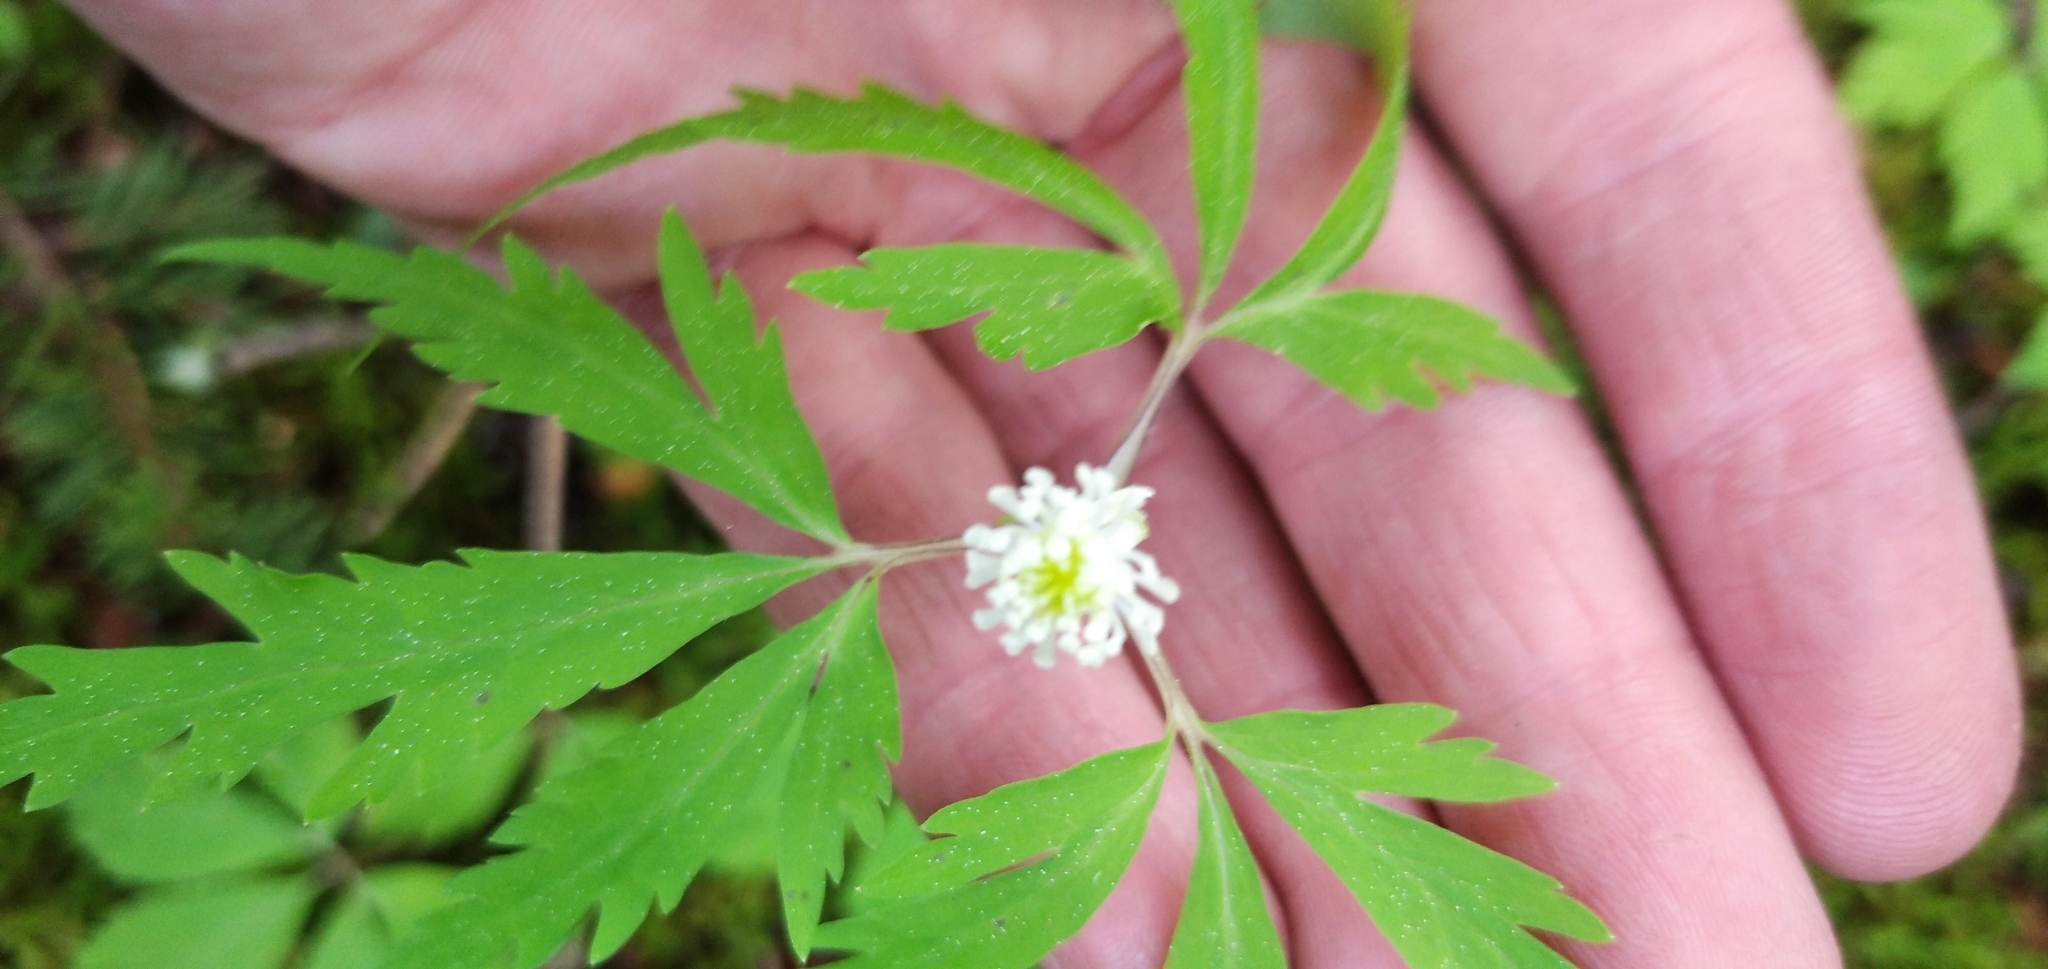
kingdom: Plantae
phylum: Tracheophyta
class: Magnoliopsida
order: Ranunculales
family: Ranunculaceae
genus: Anemone
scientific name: Anemone reflexa
